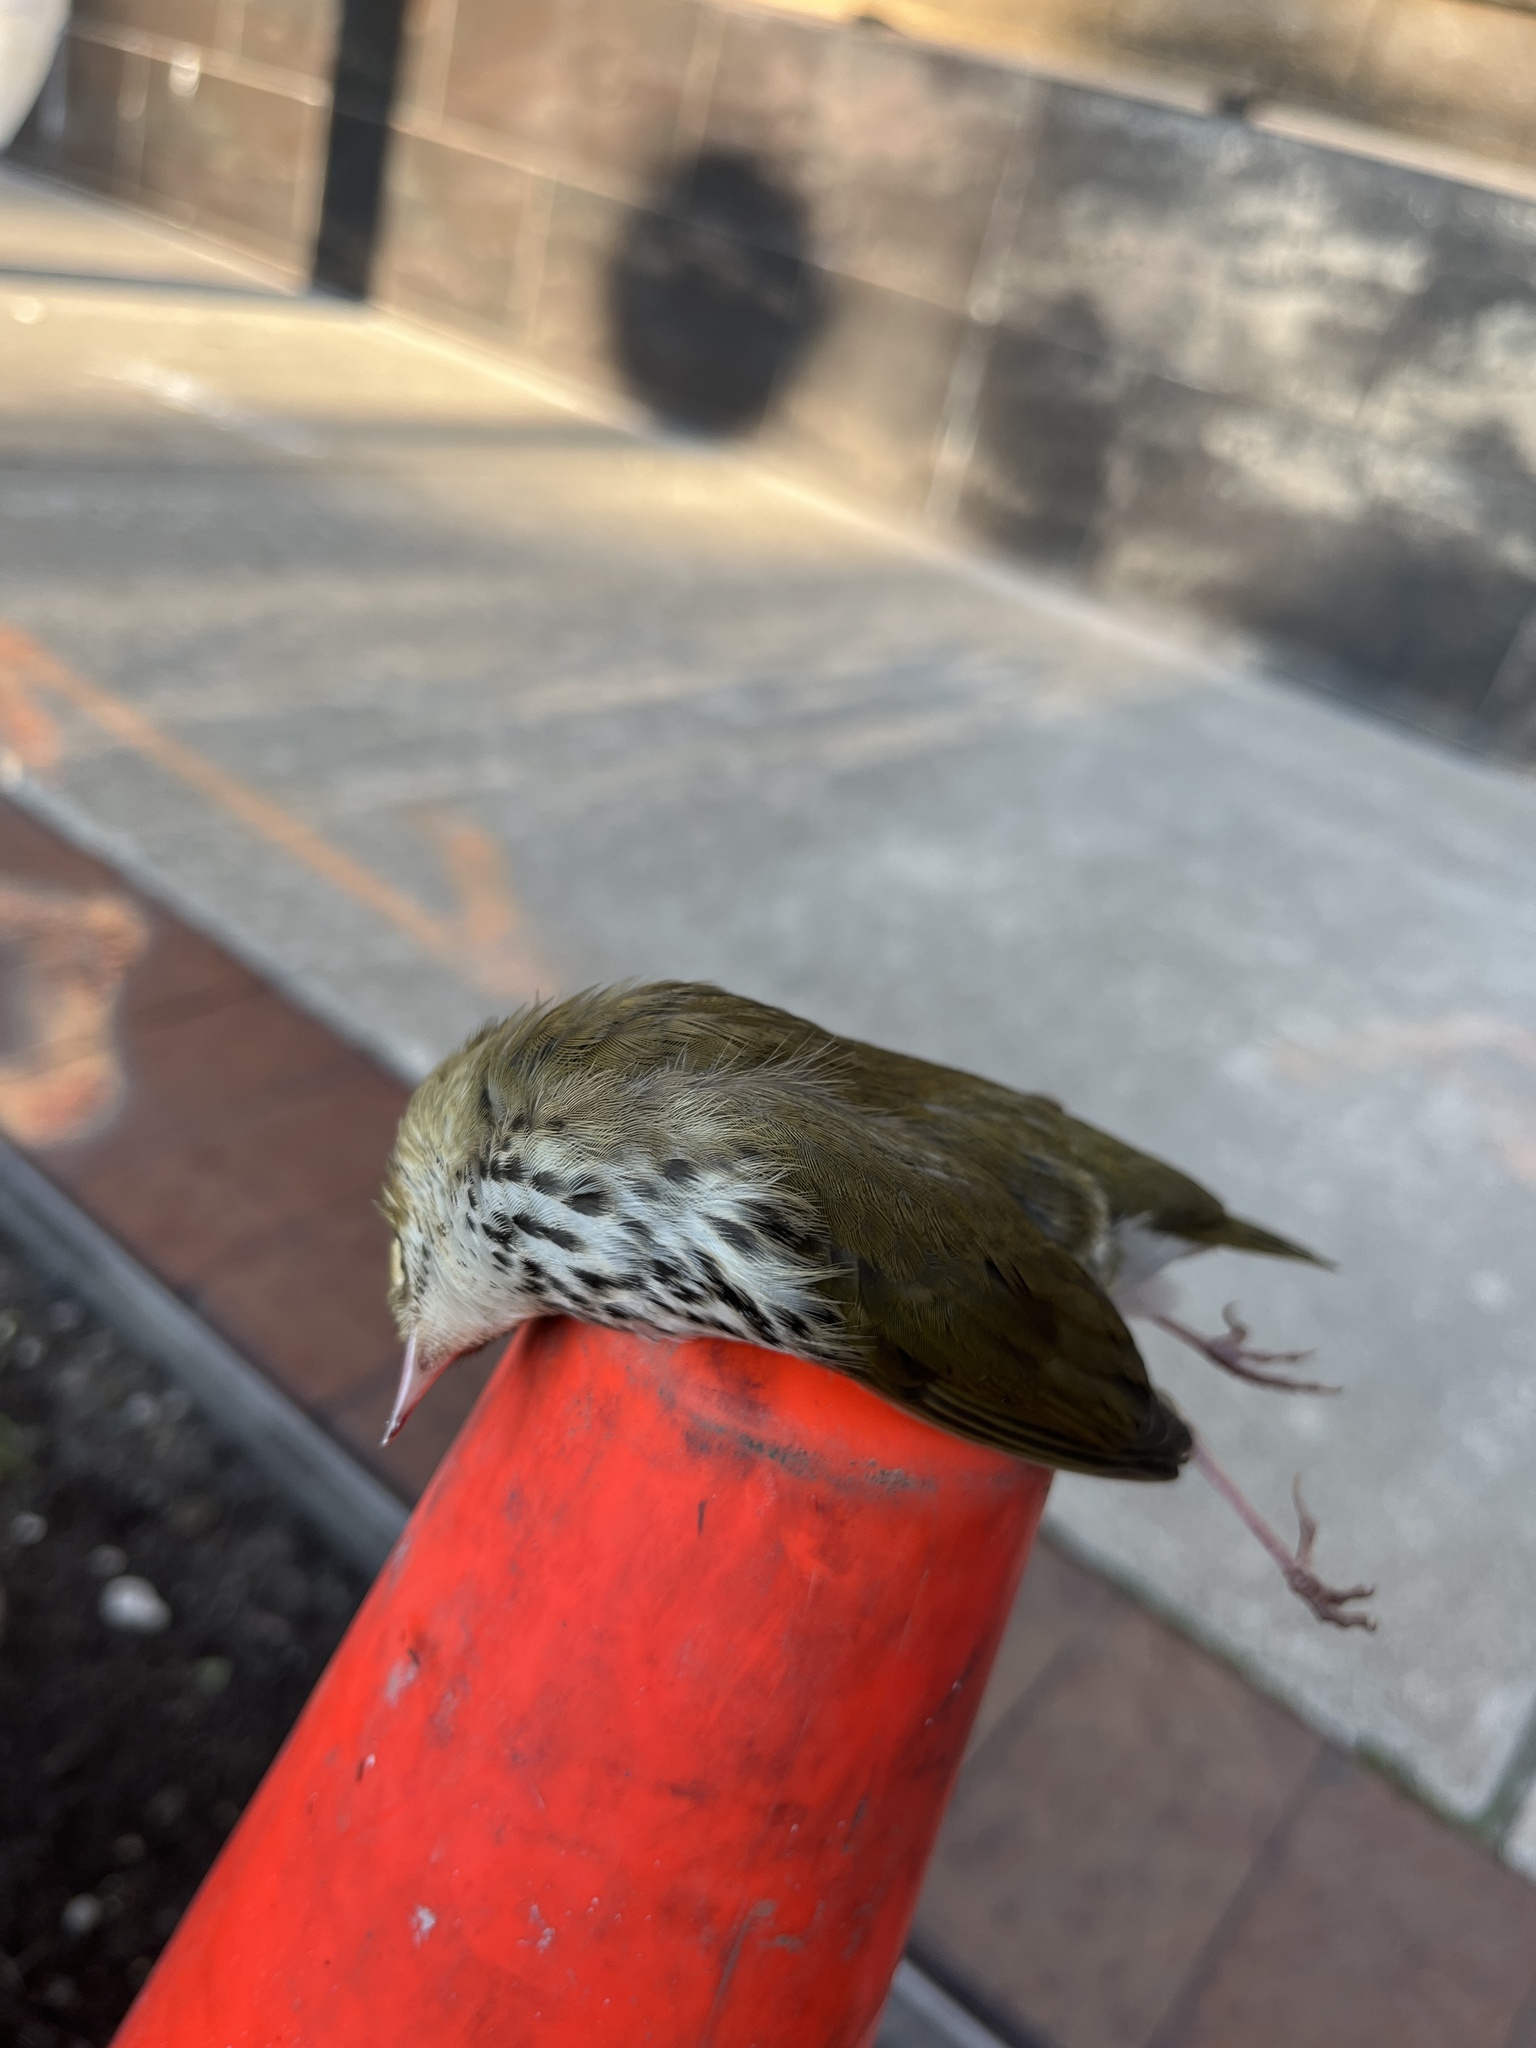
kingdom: Animalia
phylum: Chordata
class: Aves
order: Passeriformes
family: Parulidae
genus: Seiurus
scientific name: Seiurus aurocapilla
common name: Ovenbird
